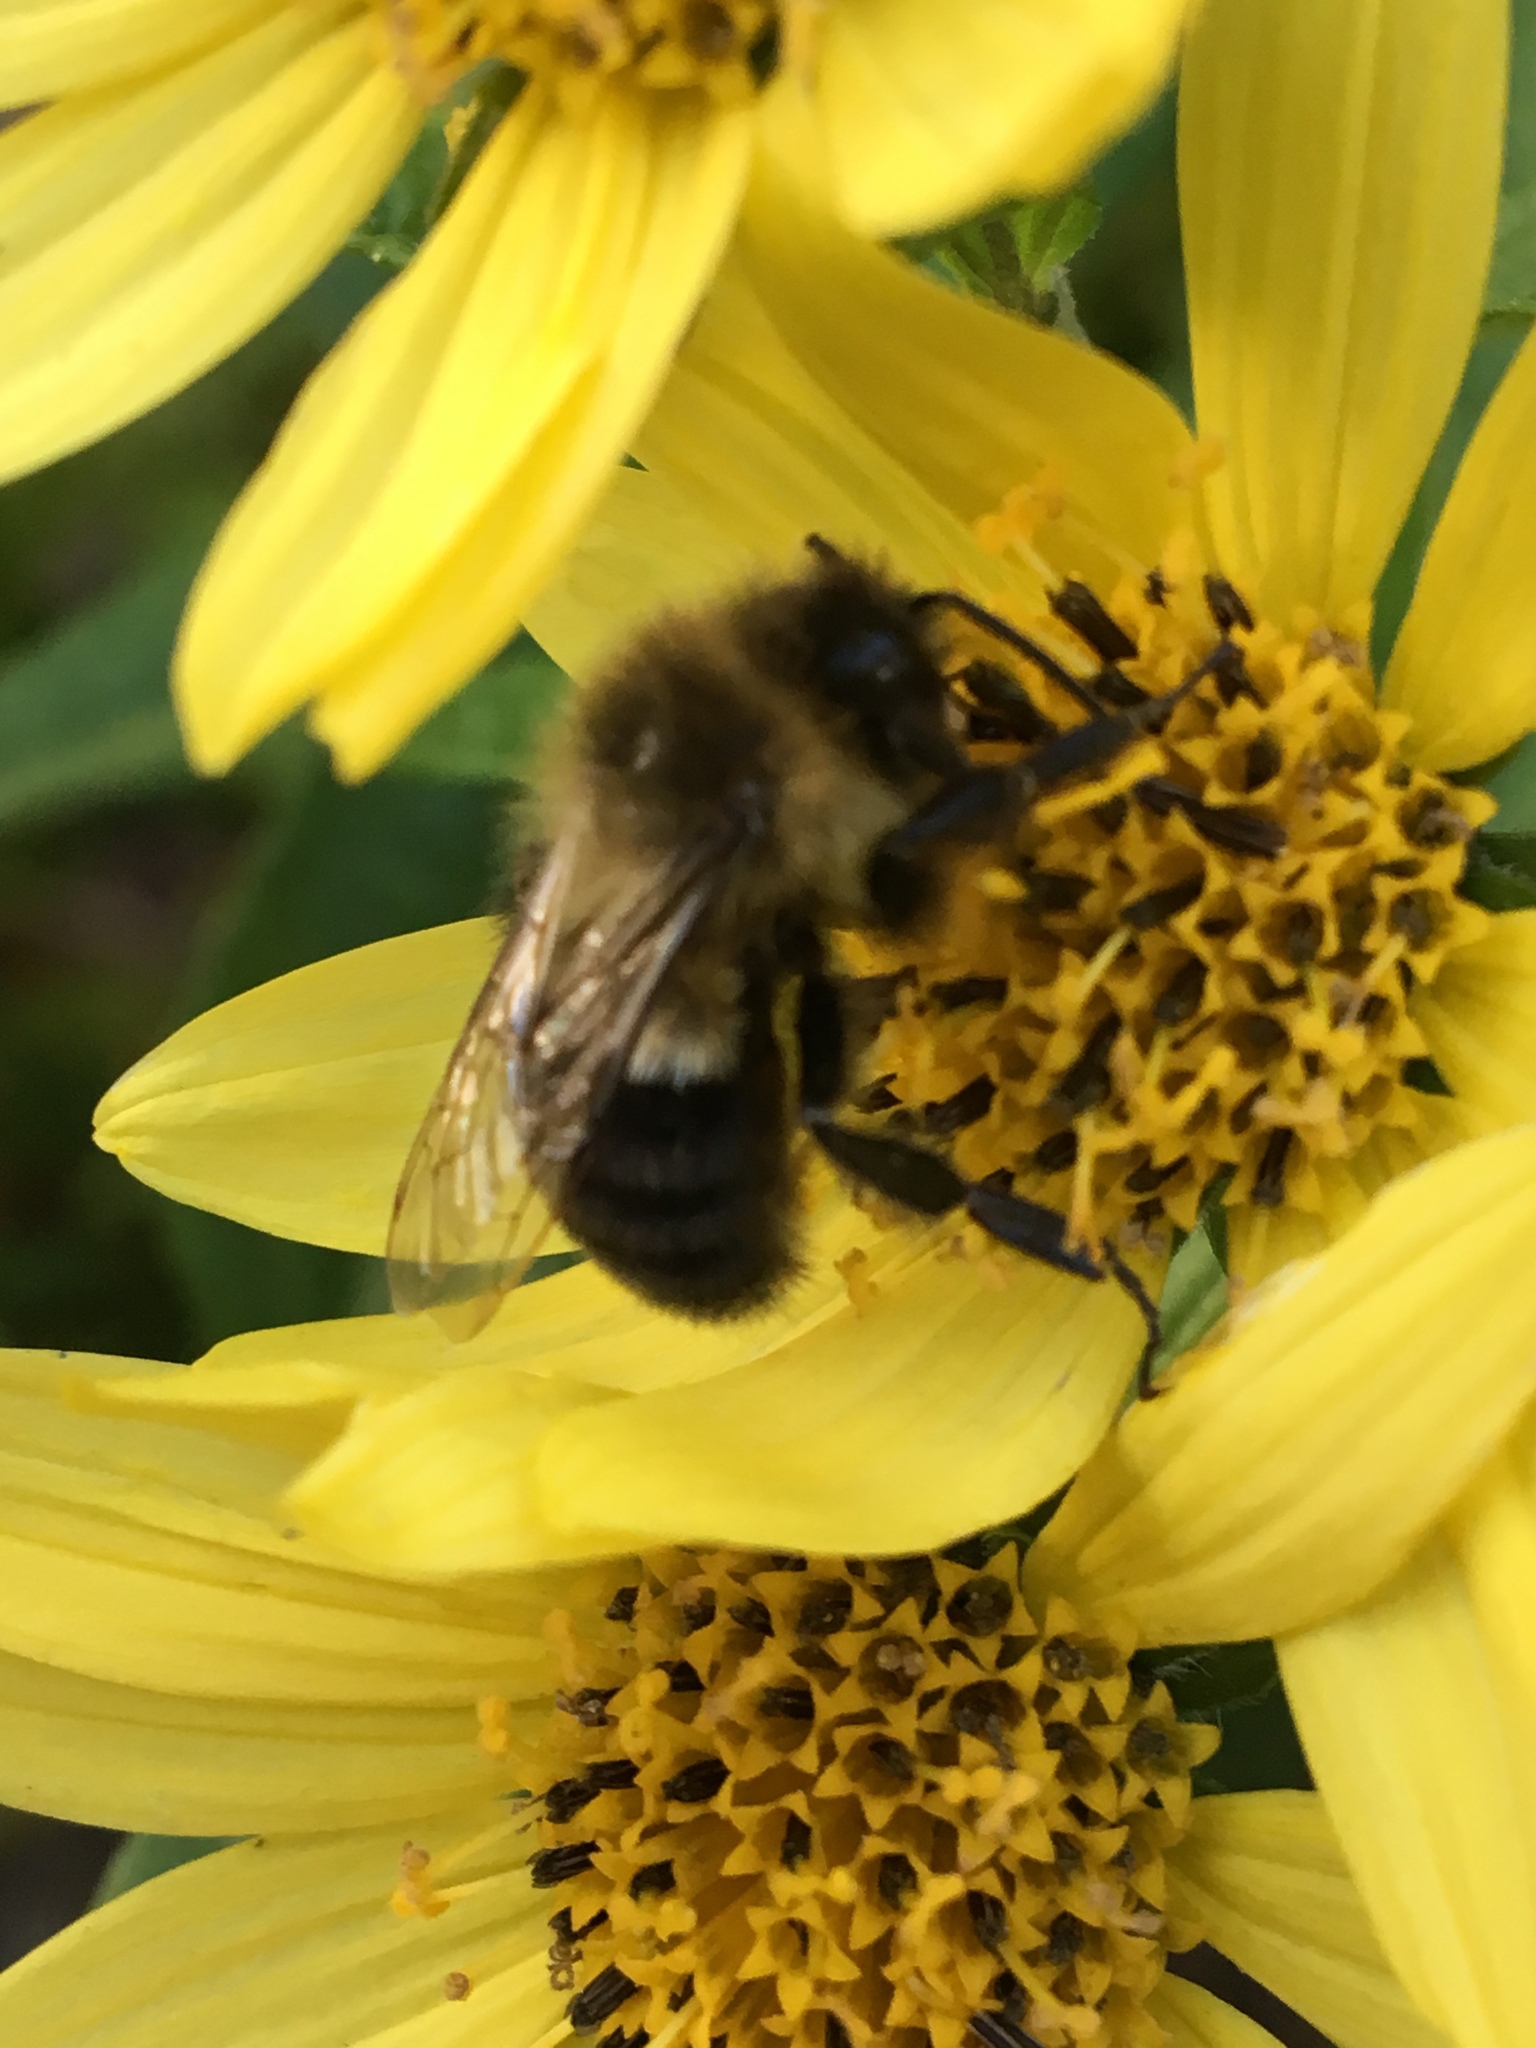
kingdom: Animalia
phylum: Arthropoda
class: Insecta
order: Hymenoptera
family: Apidae
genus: Bombus
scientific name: Bombus impatiens
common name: Common eastern bumble bee
